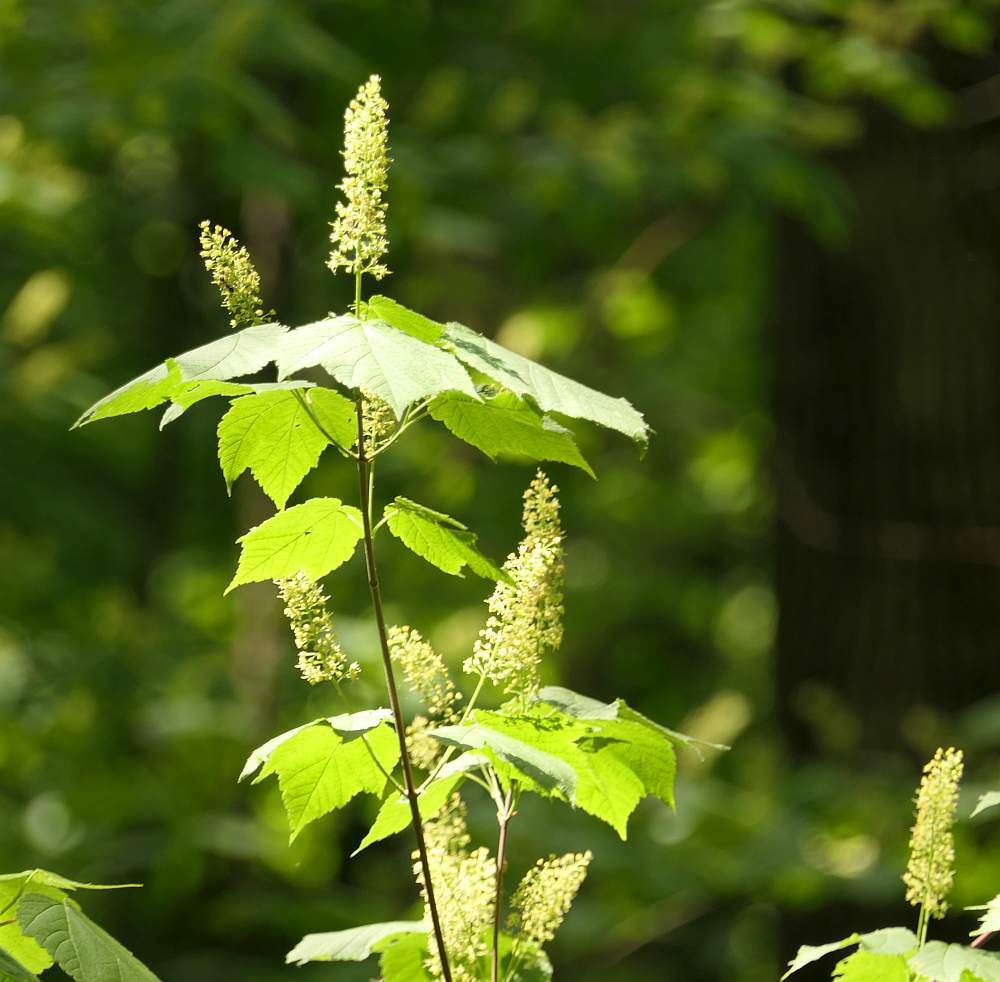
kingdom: Plantae
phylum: Tracheophyta
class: Magnoliopsida
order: Sapindales
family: Sapindaceae
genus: Acer
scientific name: Acer spicatum
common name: Mountain maple
